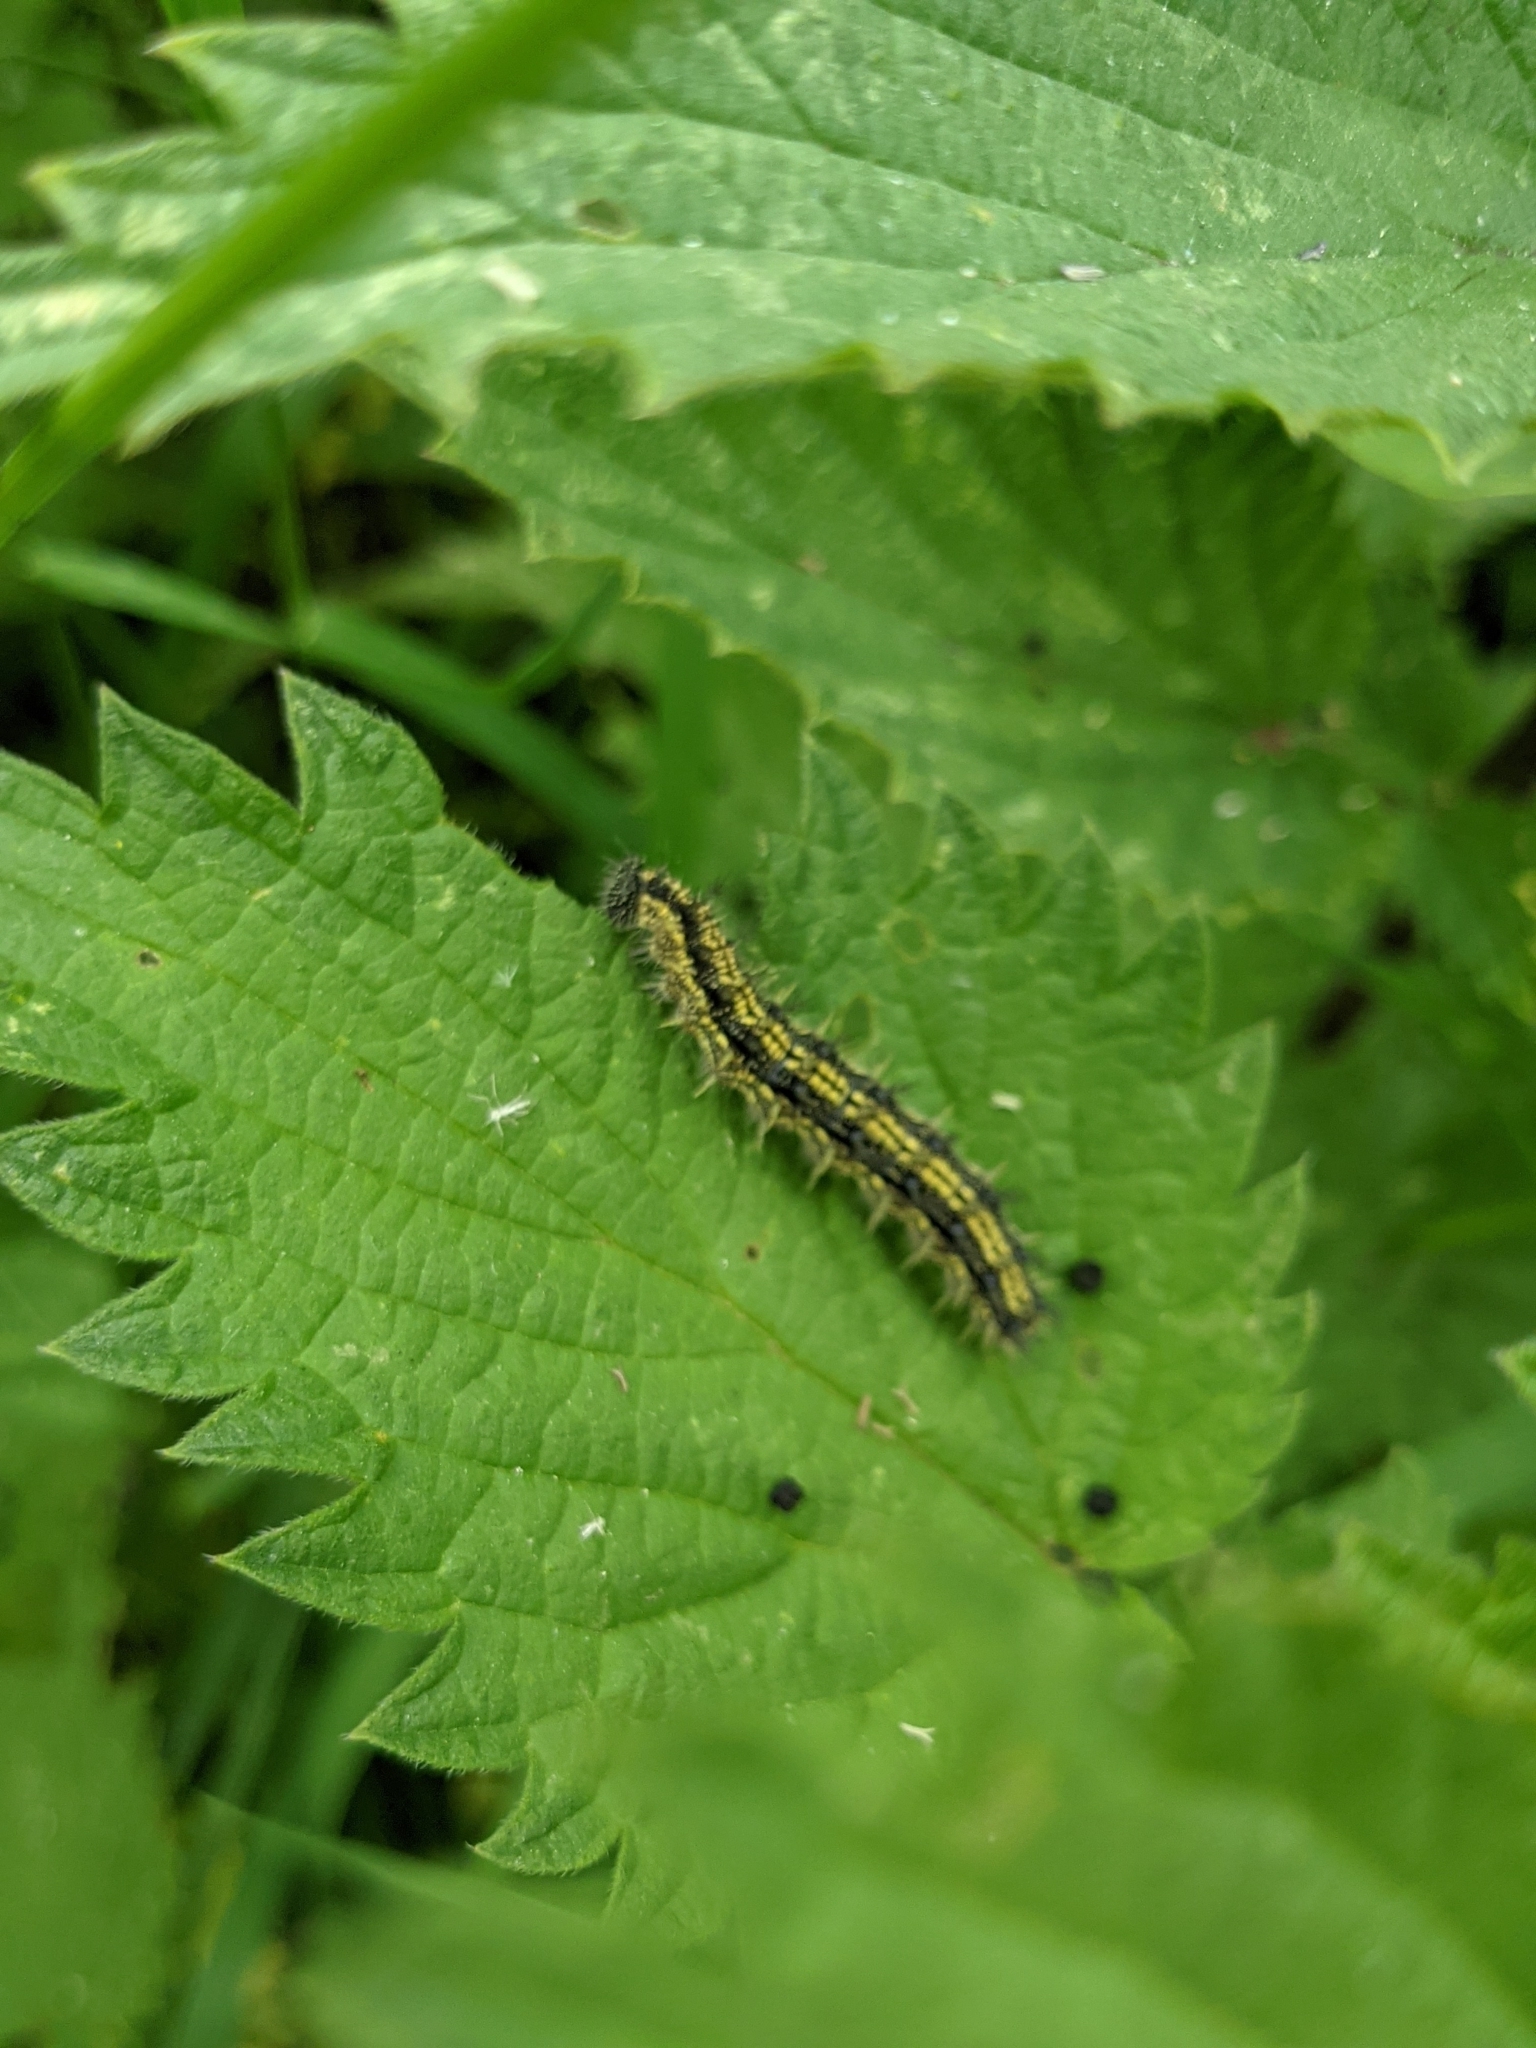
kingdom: Animalia
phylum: Arthropoda
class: Insecta
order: Lepidoptera
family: Nymphalidae
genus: Aglais
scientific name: Aglais urticae
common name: Small tortoiseshell
